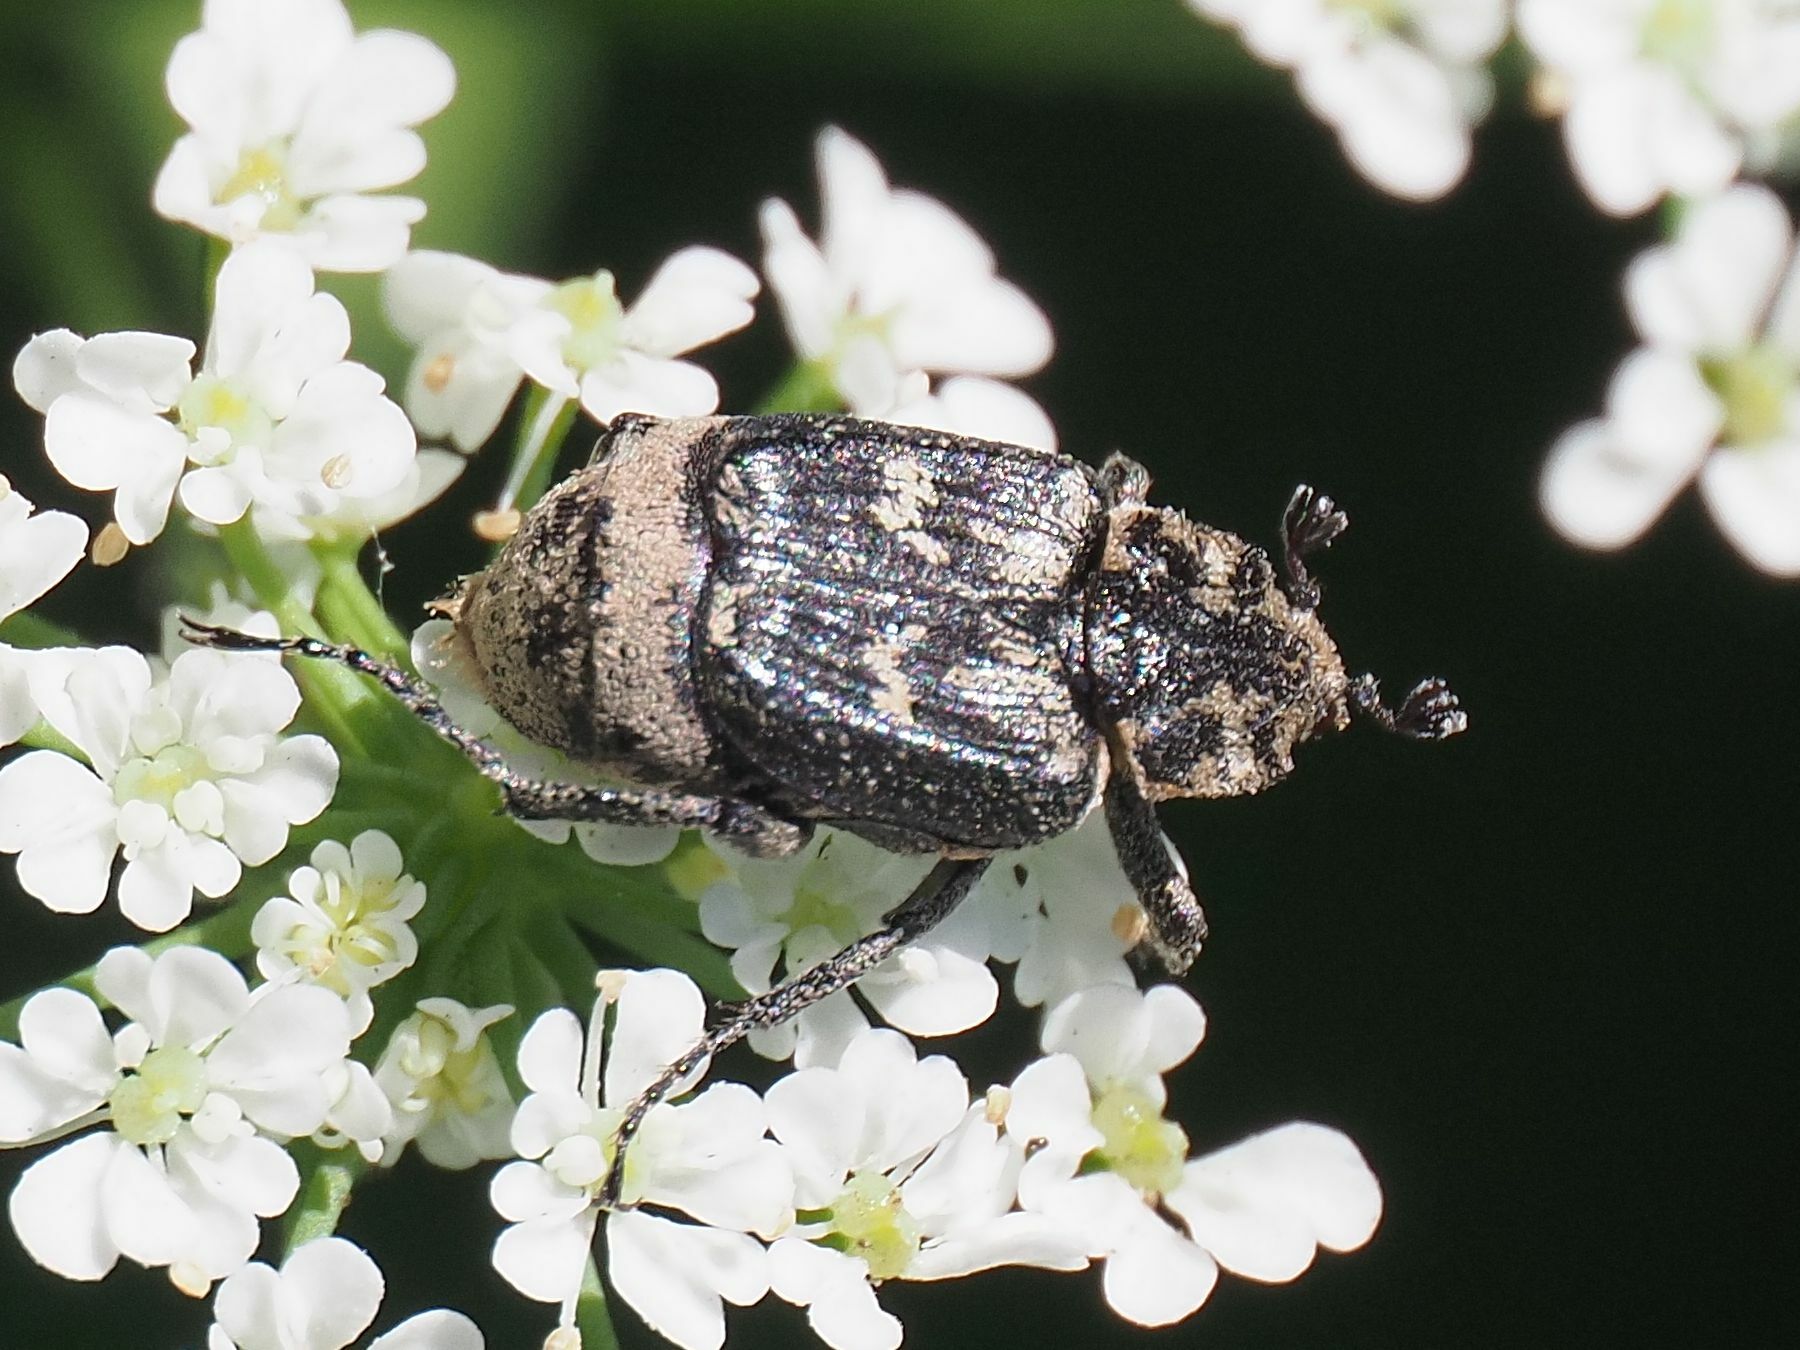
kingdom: Animalia
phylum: Arthropoda
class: Insecta
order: Coleoptera
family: Scarabaeidae
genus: Valgus
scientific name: Valgus hemipterus
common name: Bug flower chafer
